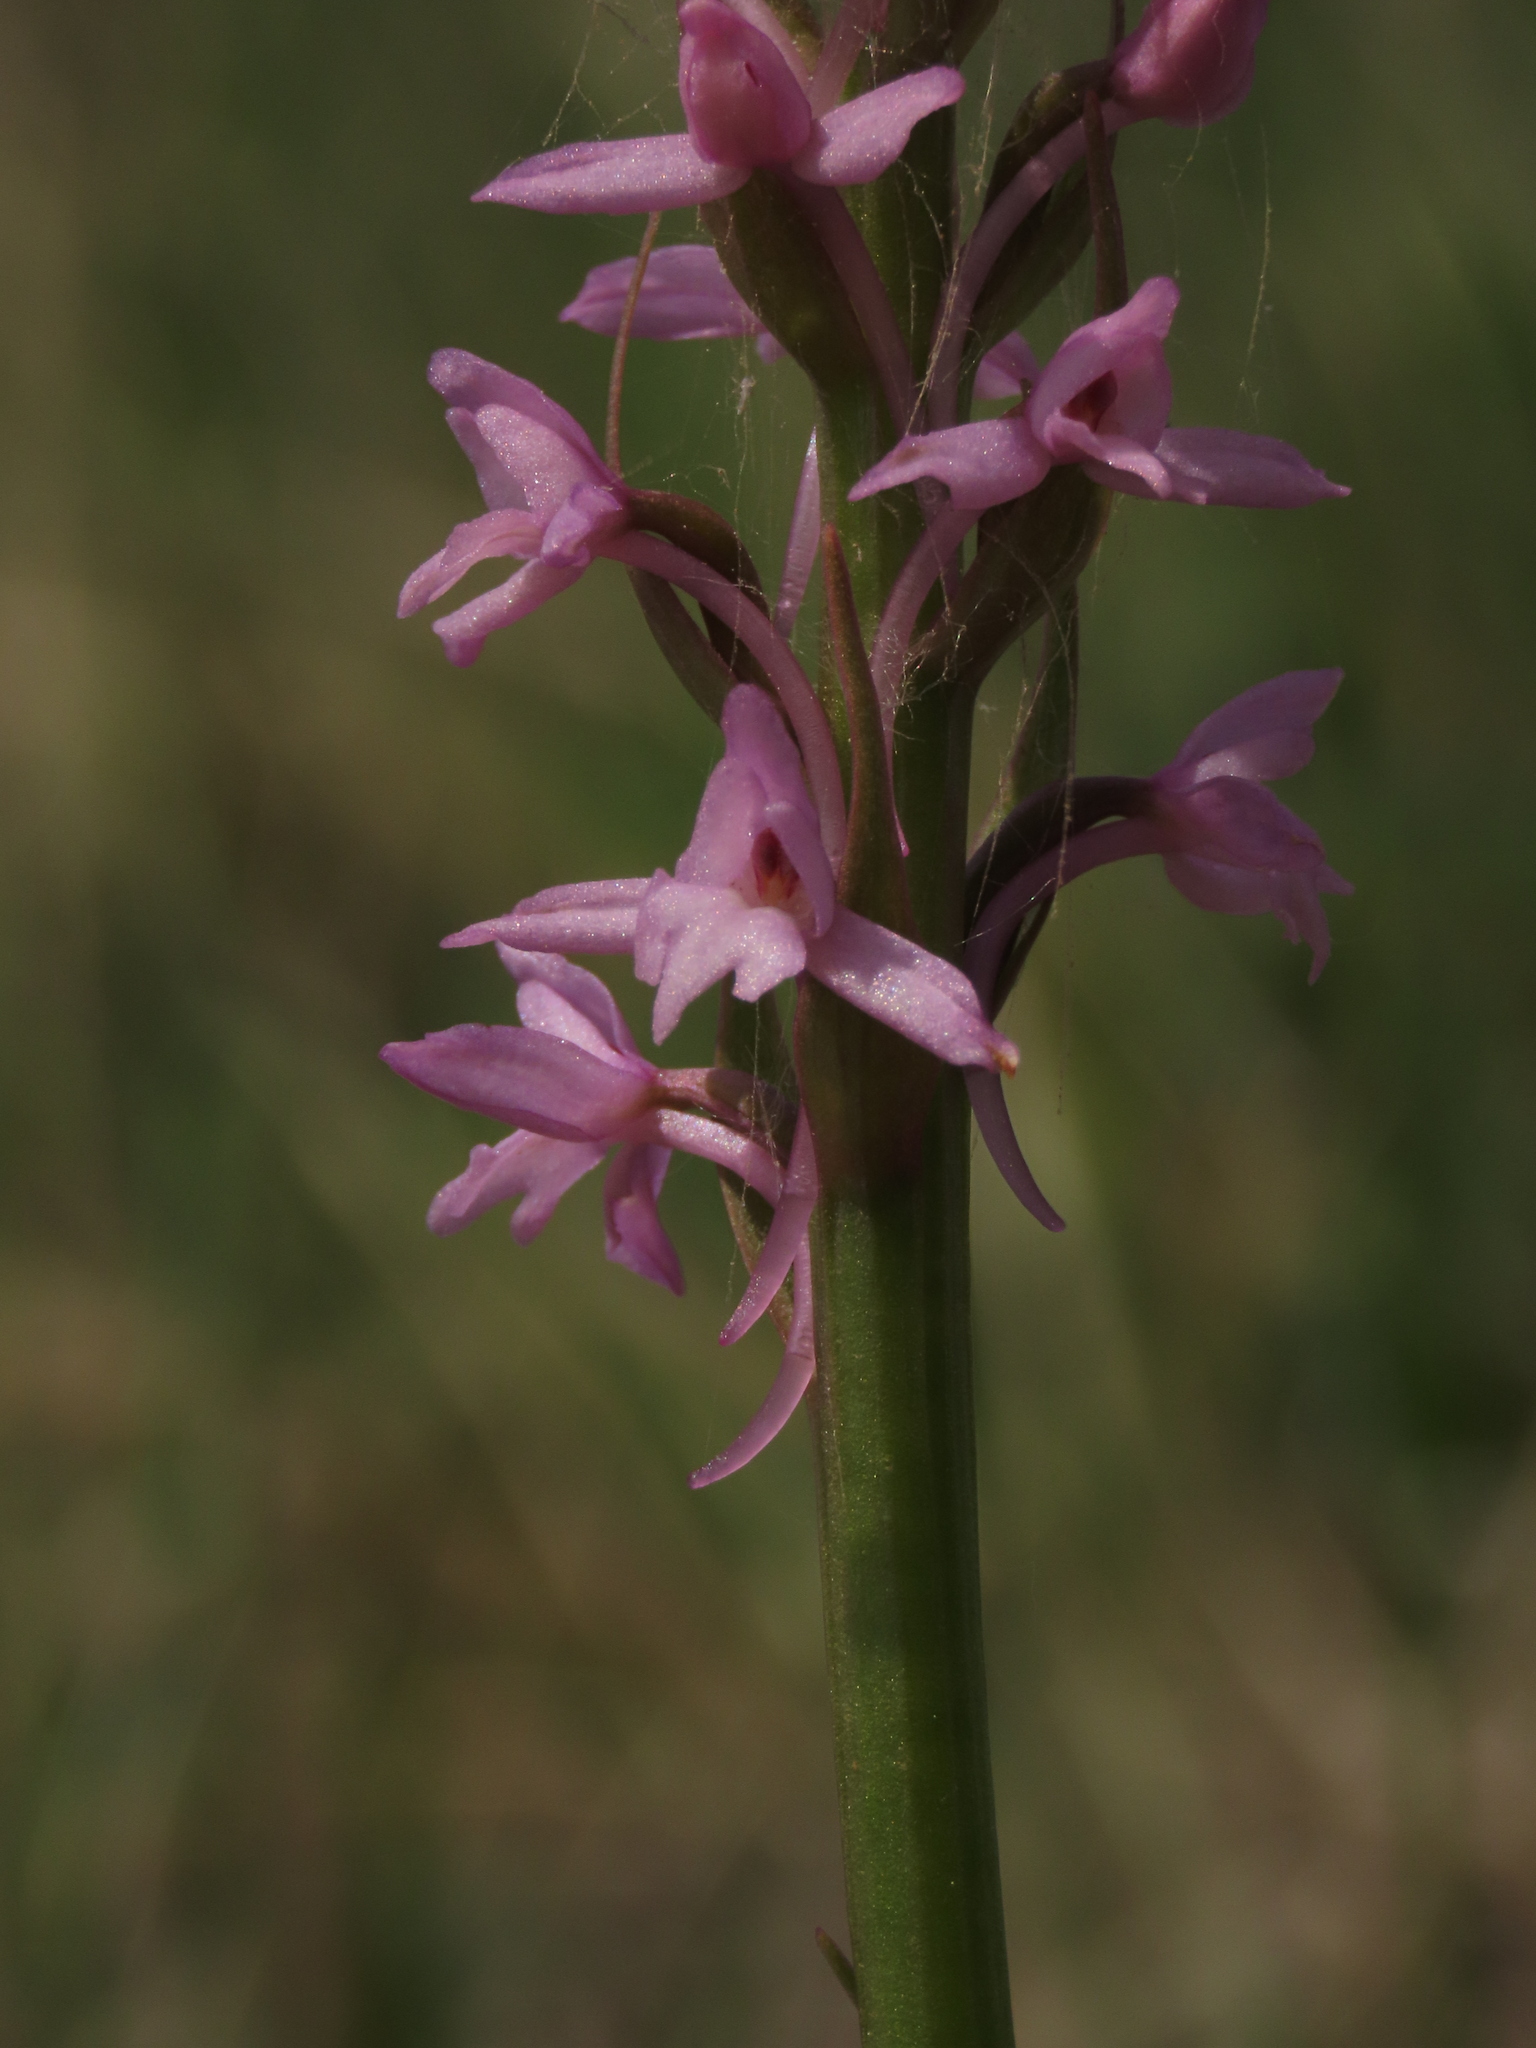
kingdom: Plantae
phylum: Tracheophyta
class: Liliopsida
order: Asparagales
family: Orchidaceae
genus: Gymnadenia
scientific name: Gymnadenia conopsea
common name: Fragrant orchid
